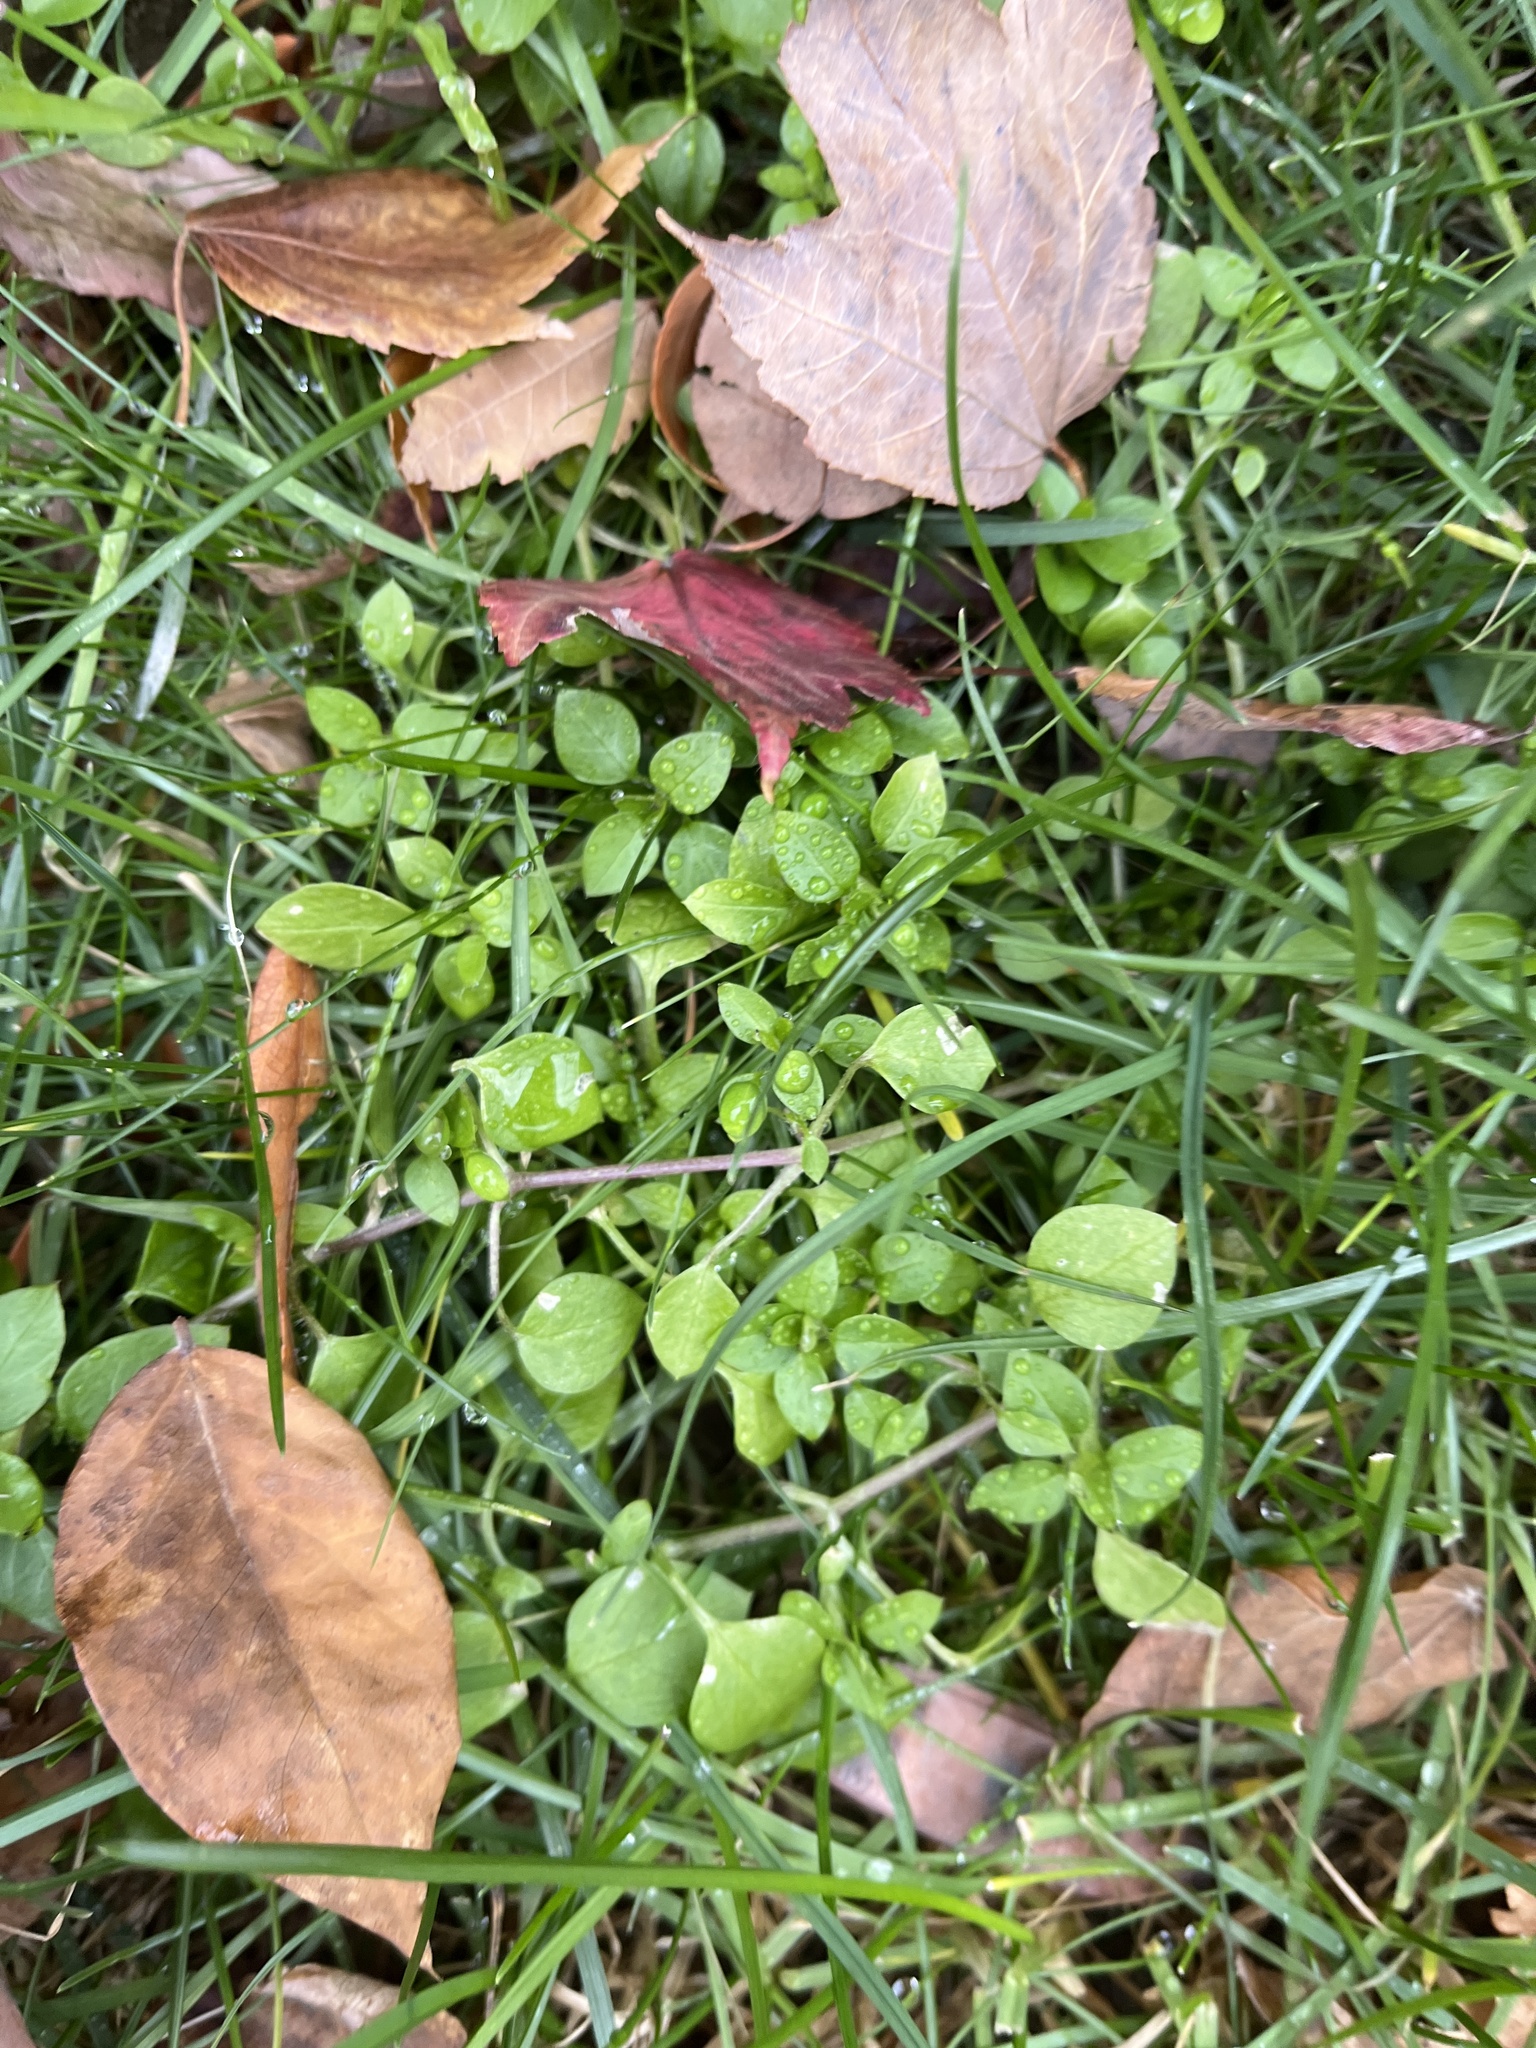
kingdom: Plantae
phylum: Tracheophyta
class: Magnoliopsida
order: Caryophyllales
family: Caryophyllaceae
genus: Stellaria
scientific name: Stellaria media
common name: Common chickweed
